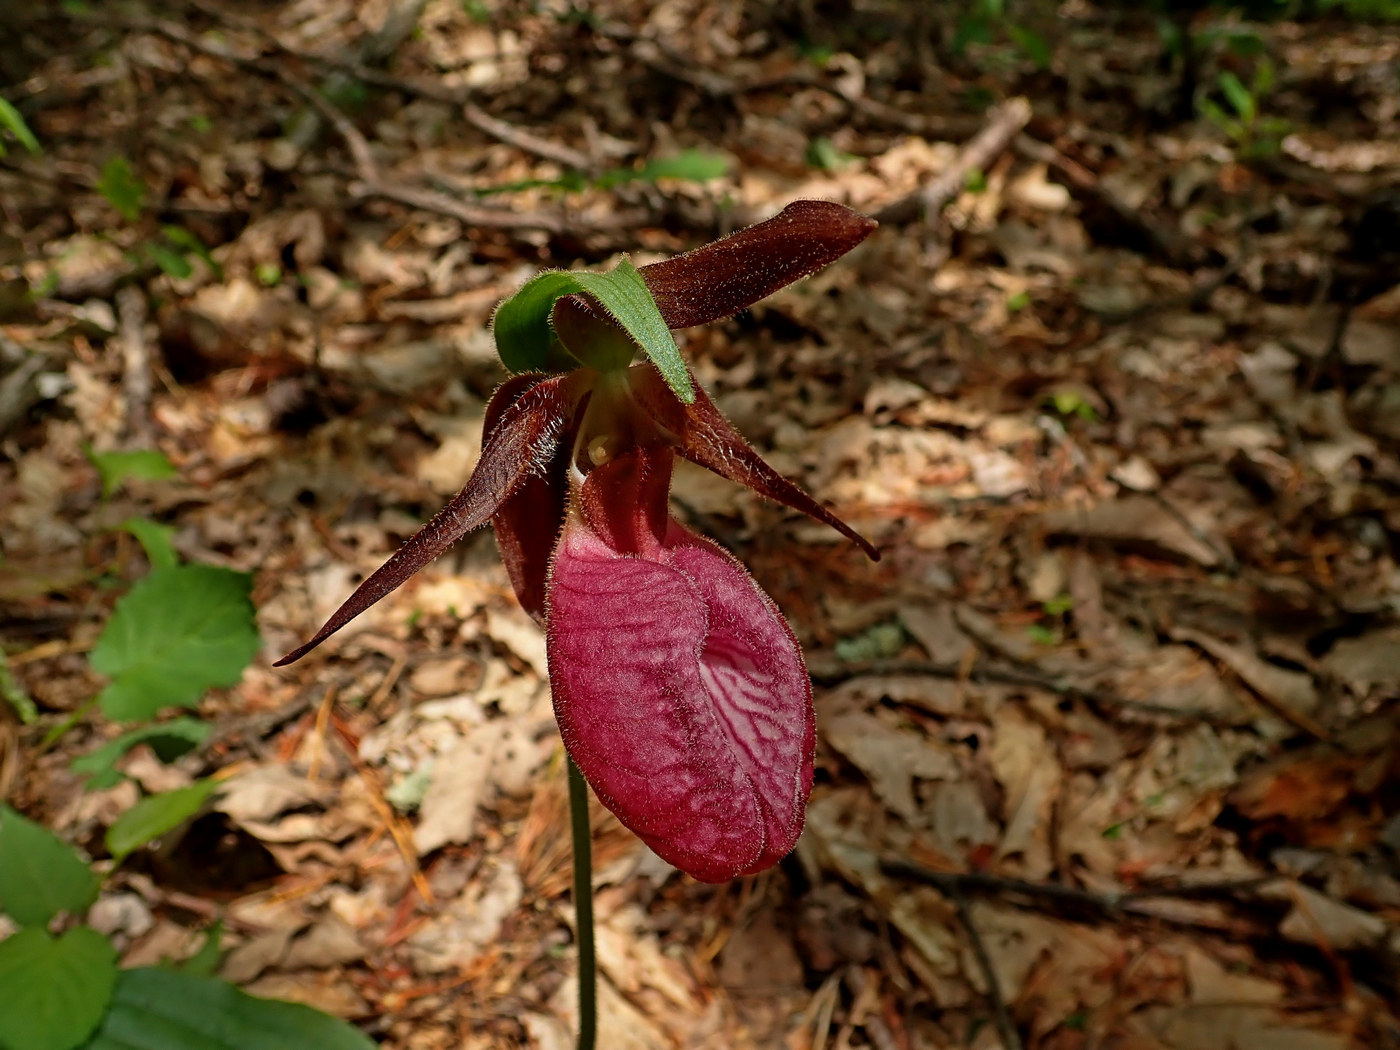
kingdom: Plantae
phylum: Tracheophyta
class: Liliopsida
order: Asparagales
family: Orchidaceae
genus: Cypripedium
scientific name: Cypripedium acaule
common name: Pink lady's-slipper
